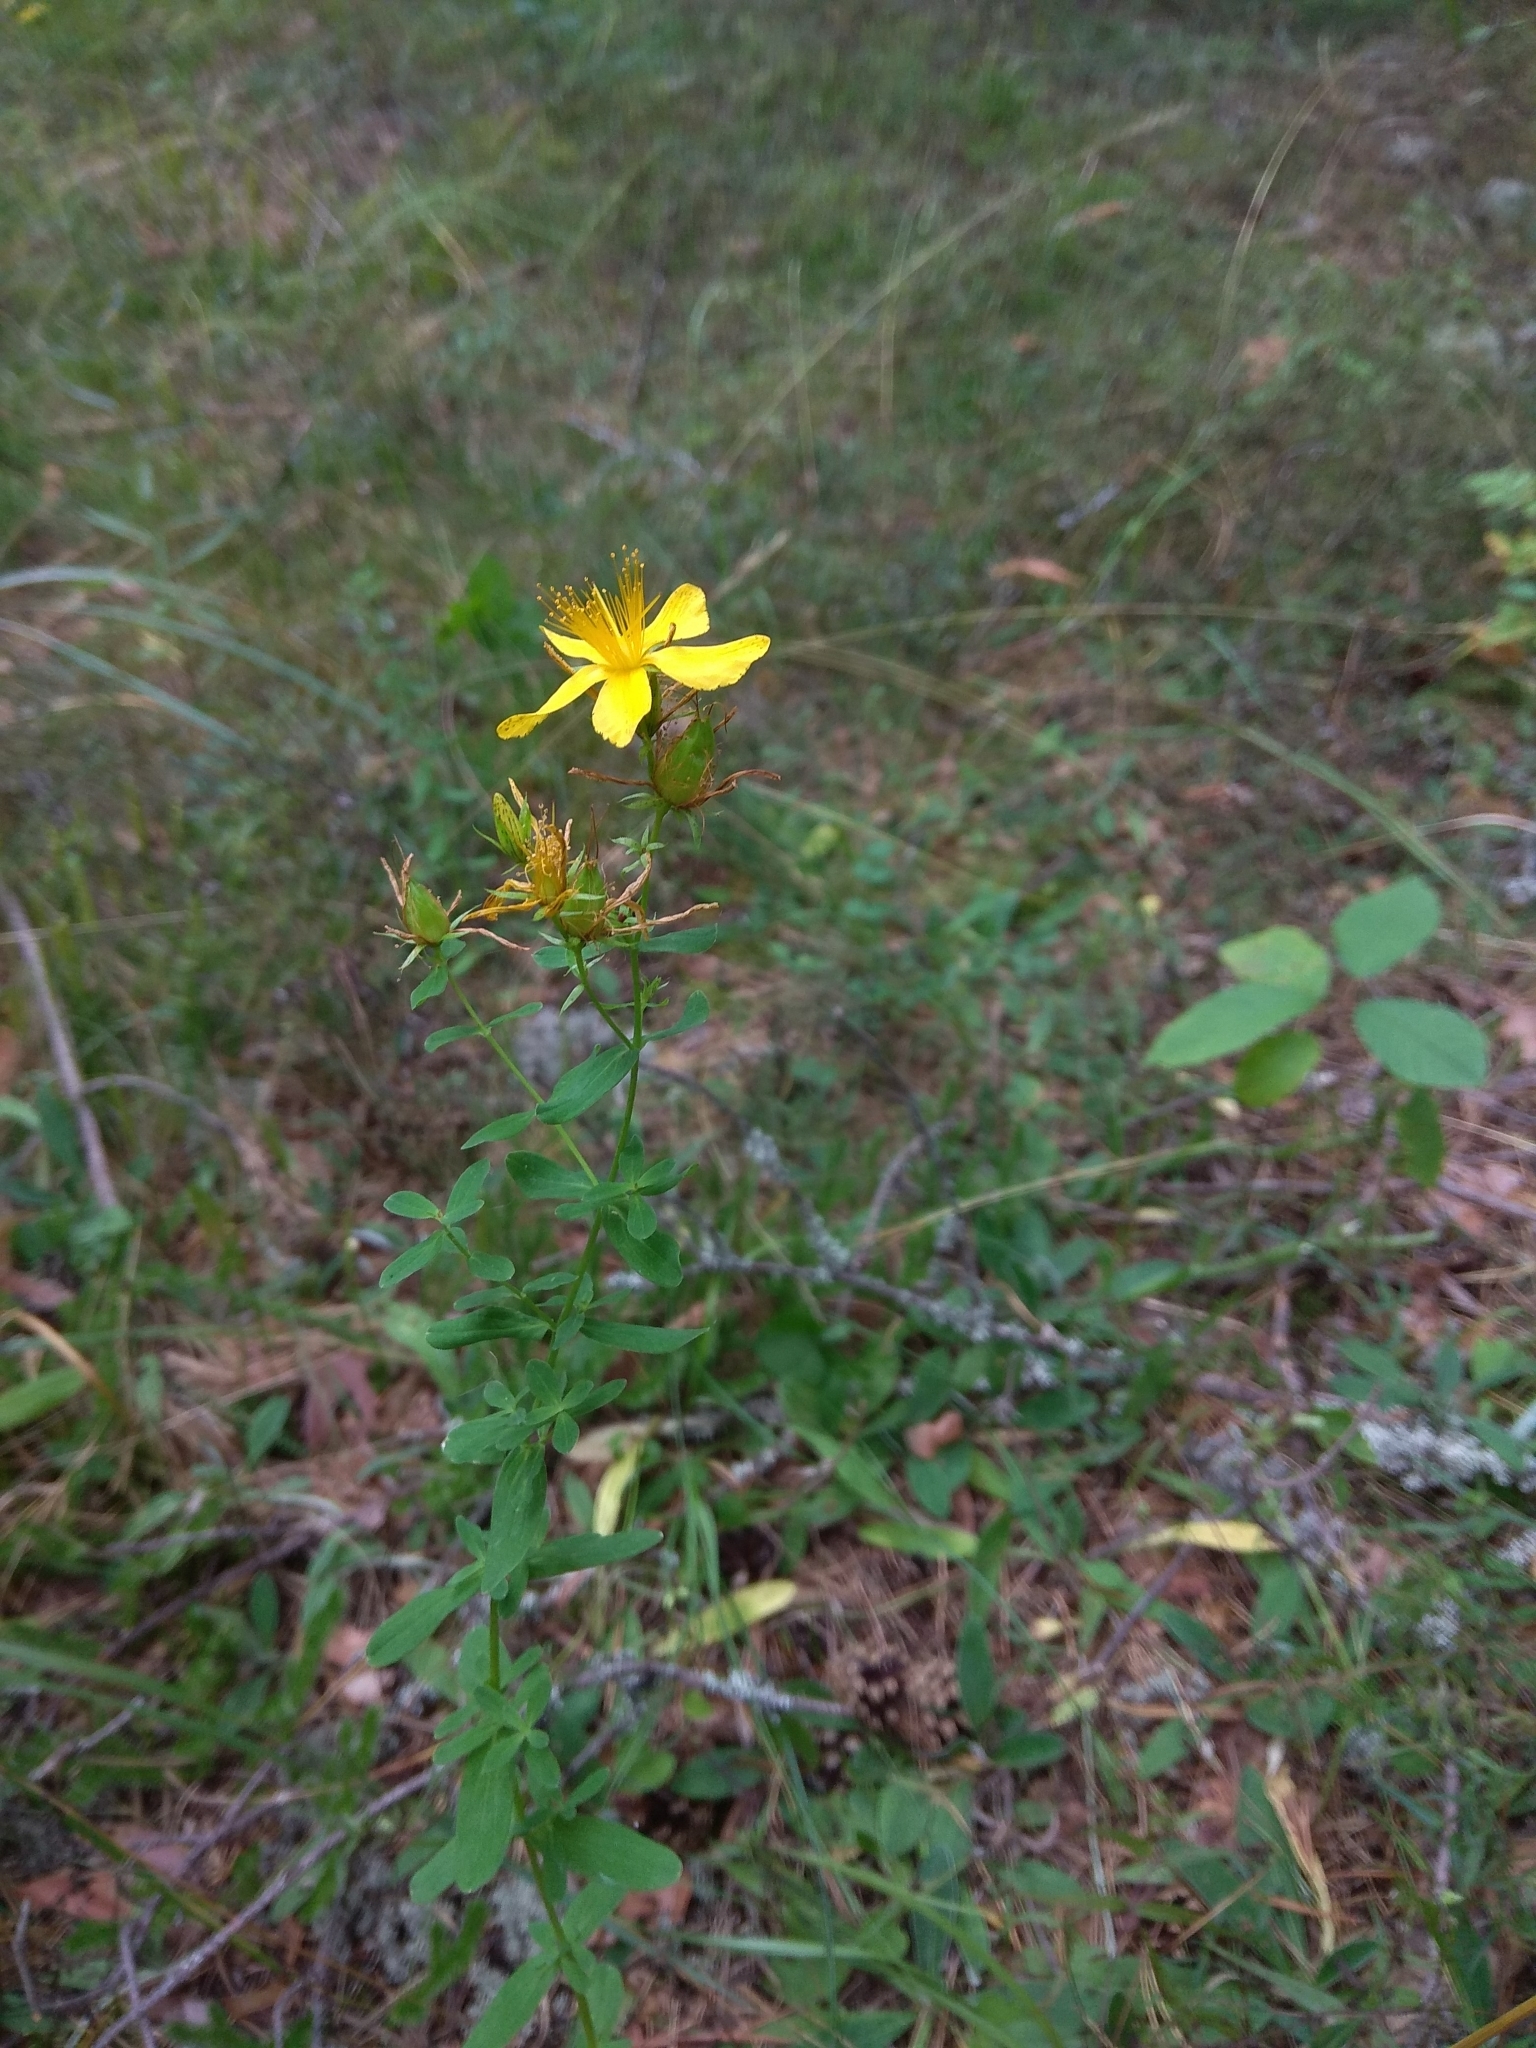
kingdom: Plantae
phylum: Tracheophyta
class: Magnoliopsida
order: Malpighiales
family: Hypericaceae
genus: Hypericum
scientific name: Hypericum perforatum
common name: Common st. johnswort
